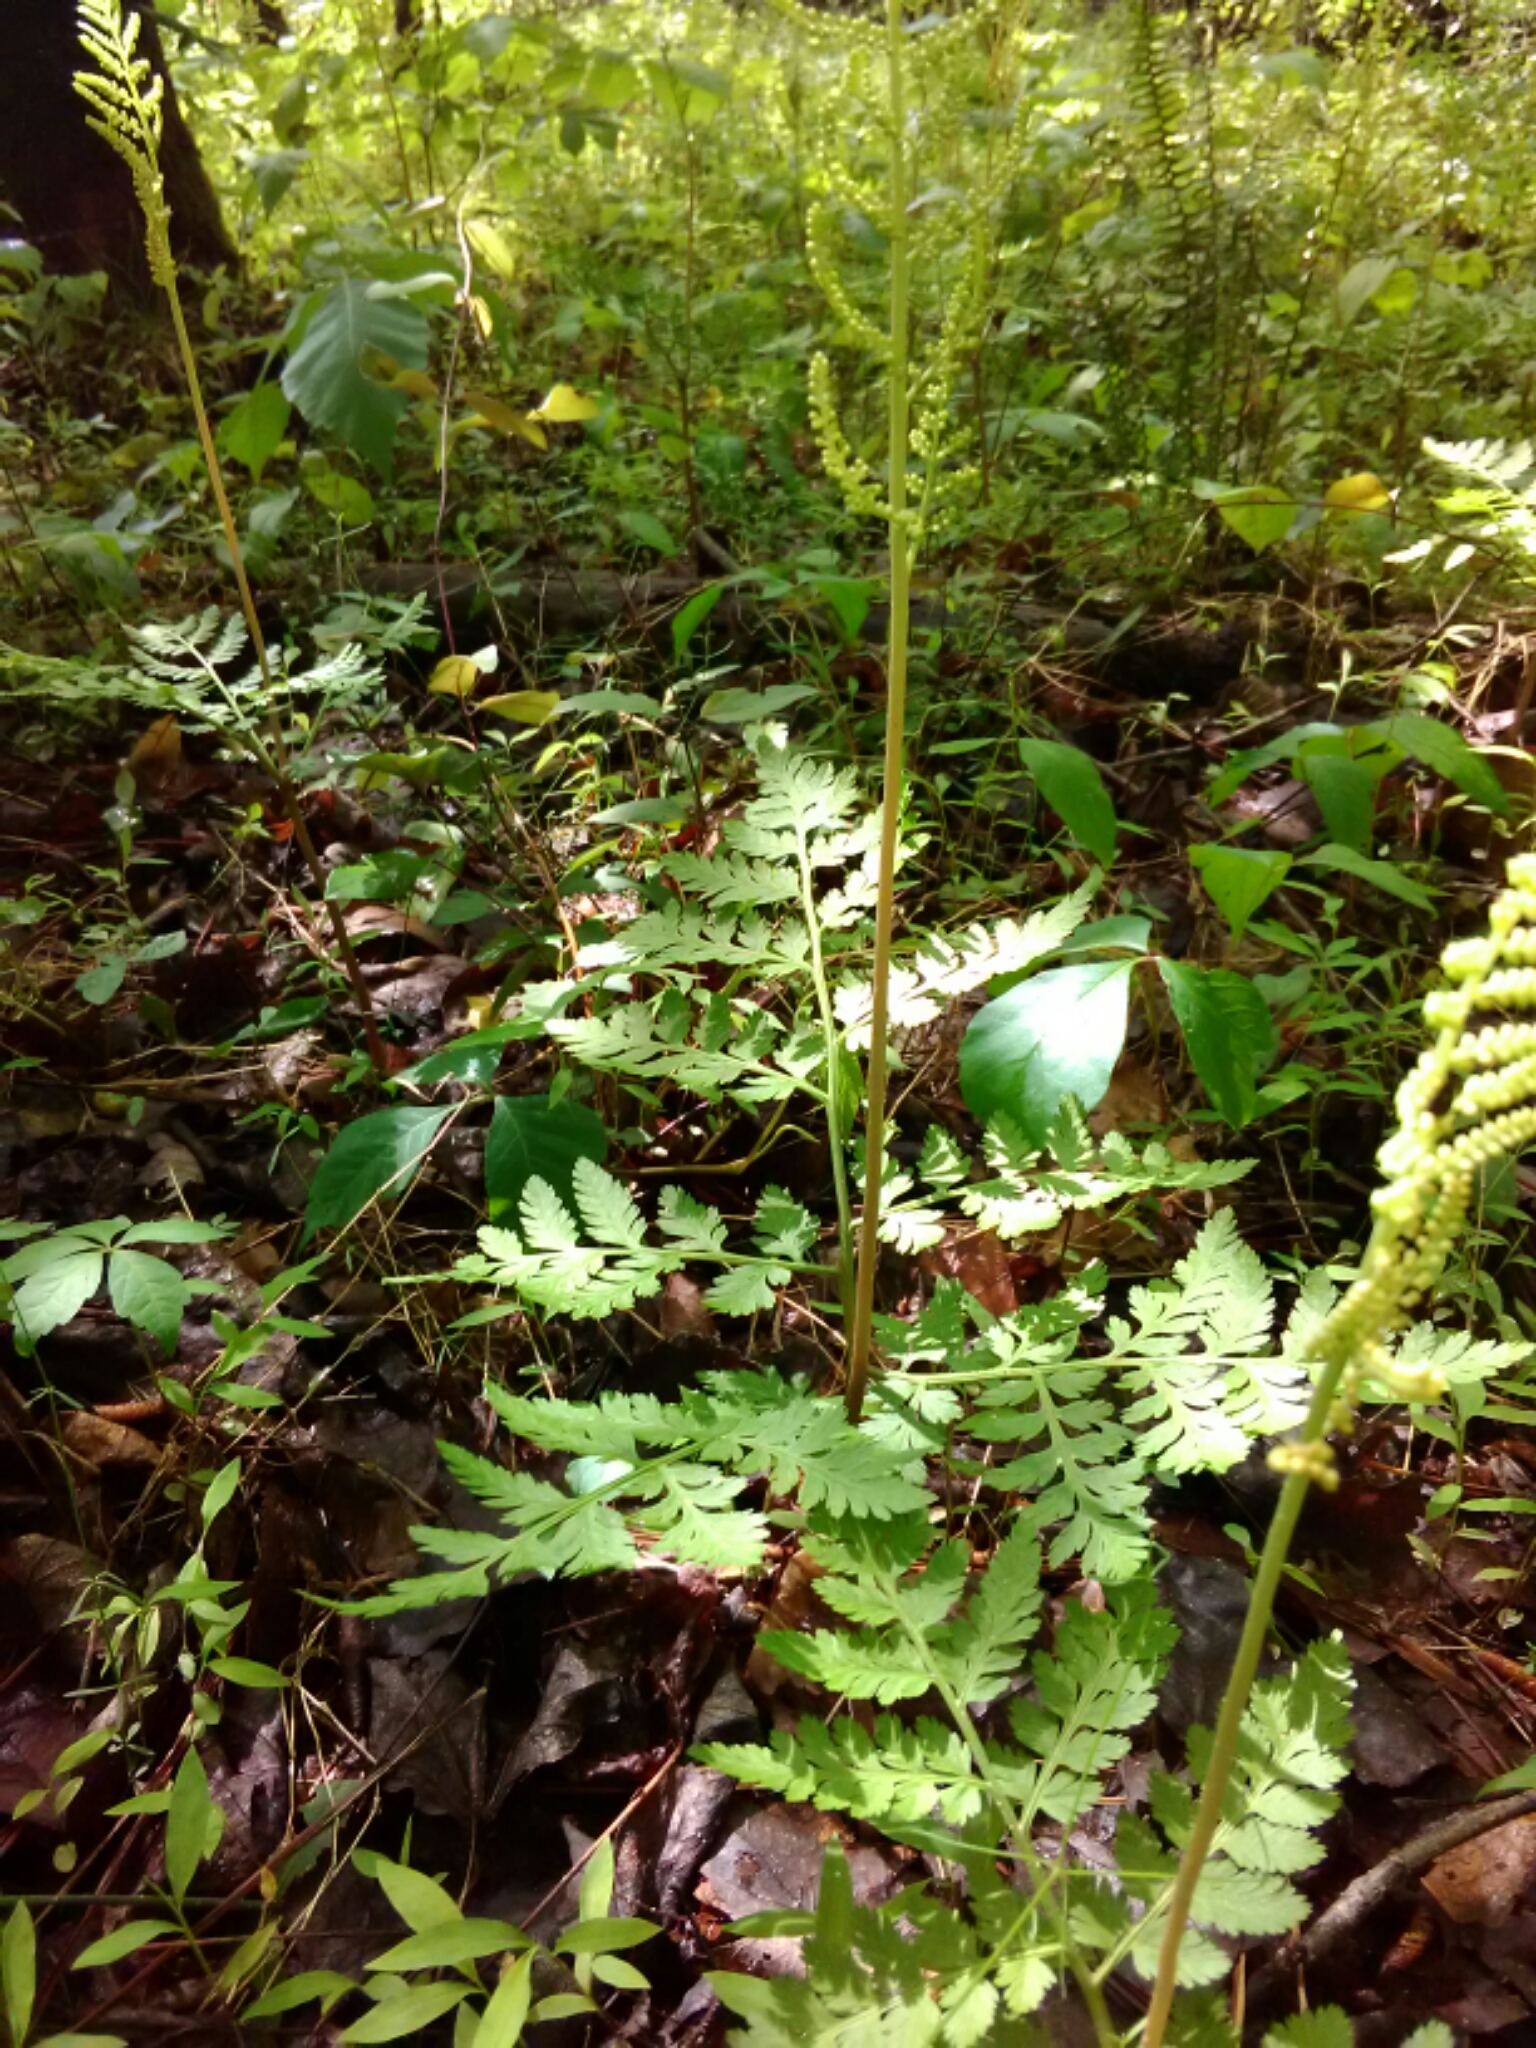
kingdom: Plantae
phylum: Tracheophyta
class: Polypodiopsida
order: Ophioglossales
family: Ophioglossaceae
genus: Botrypus
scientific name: Botrypus virginianus
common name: Common grapefern
